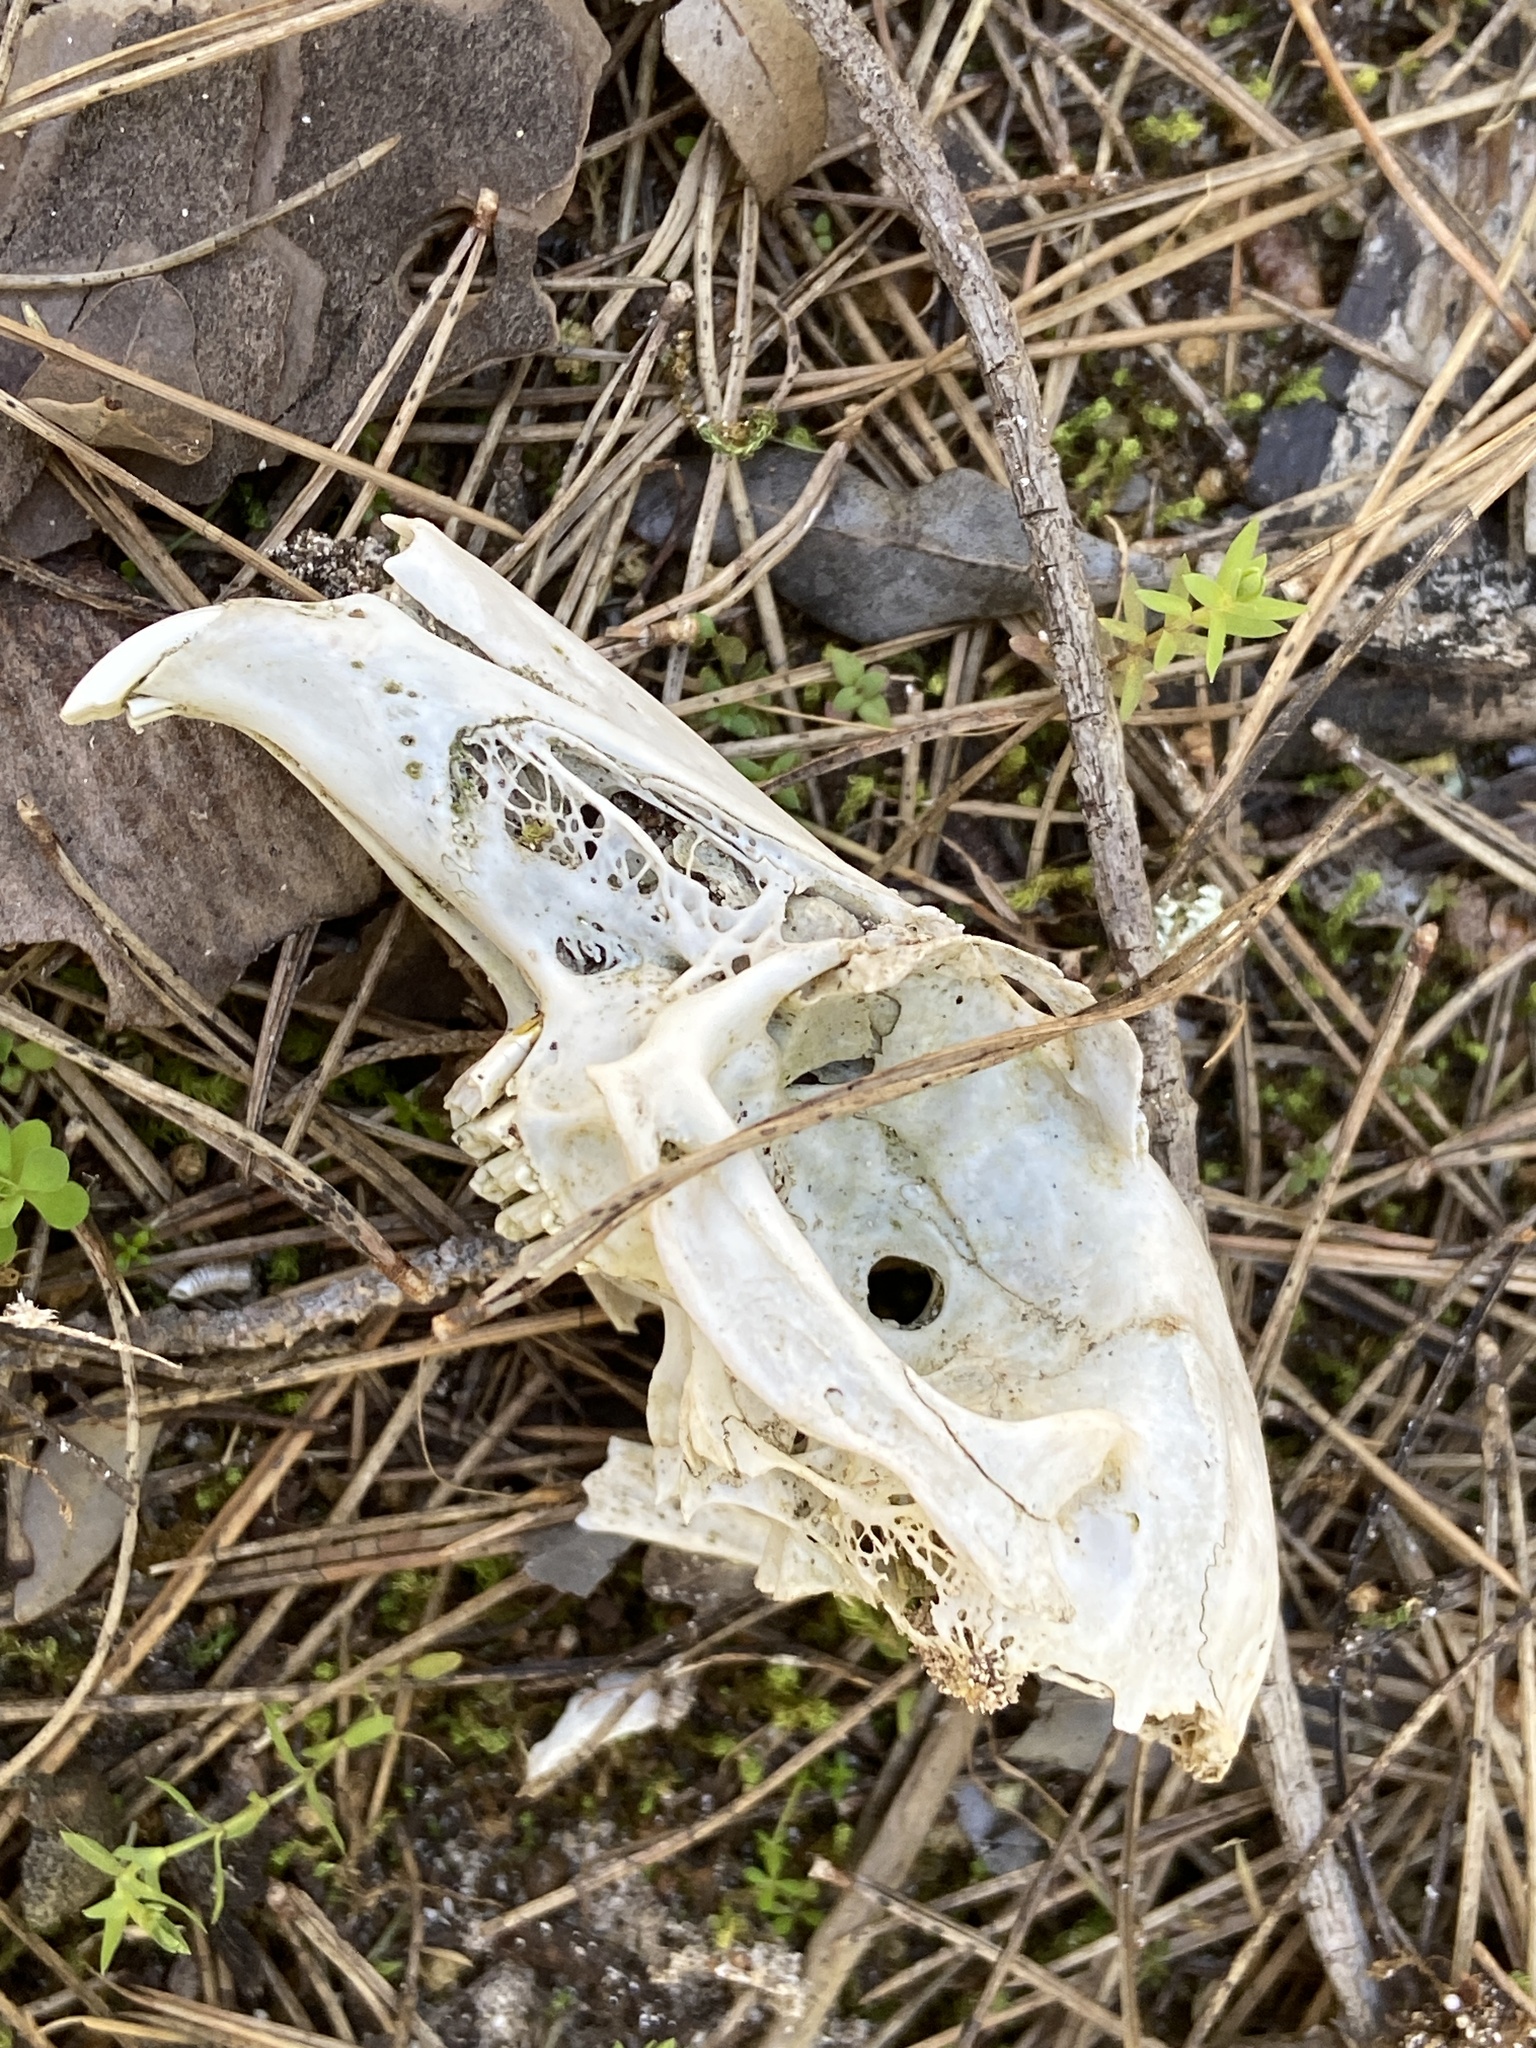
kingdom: Animalia
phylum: Chordata
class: Mammalia
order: Lagomorpha
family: Leporidae
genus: Oryctolagus
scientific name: Oryctolagus cuniculus
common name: European rabbit
